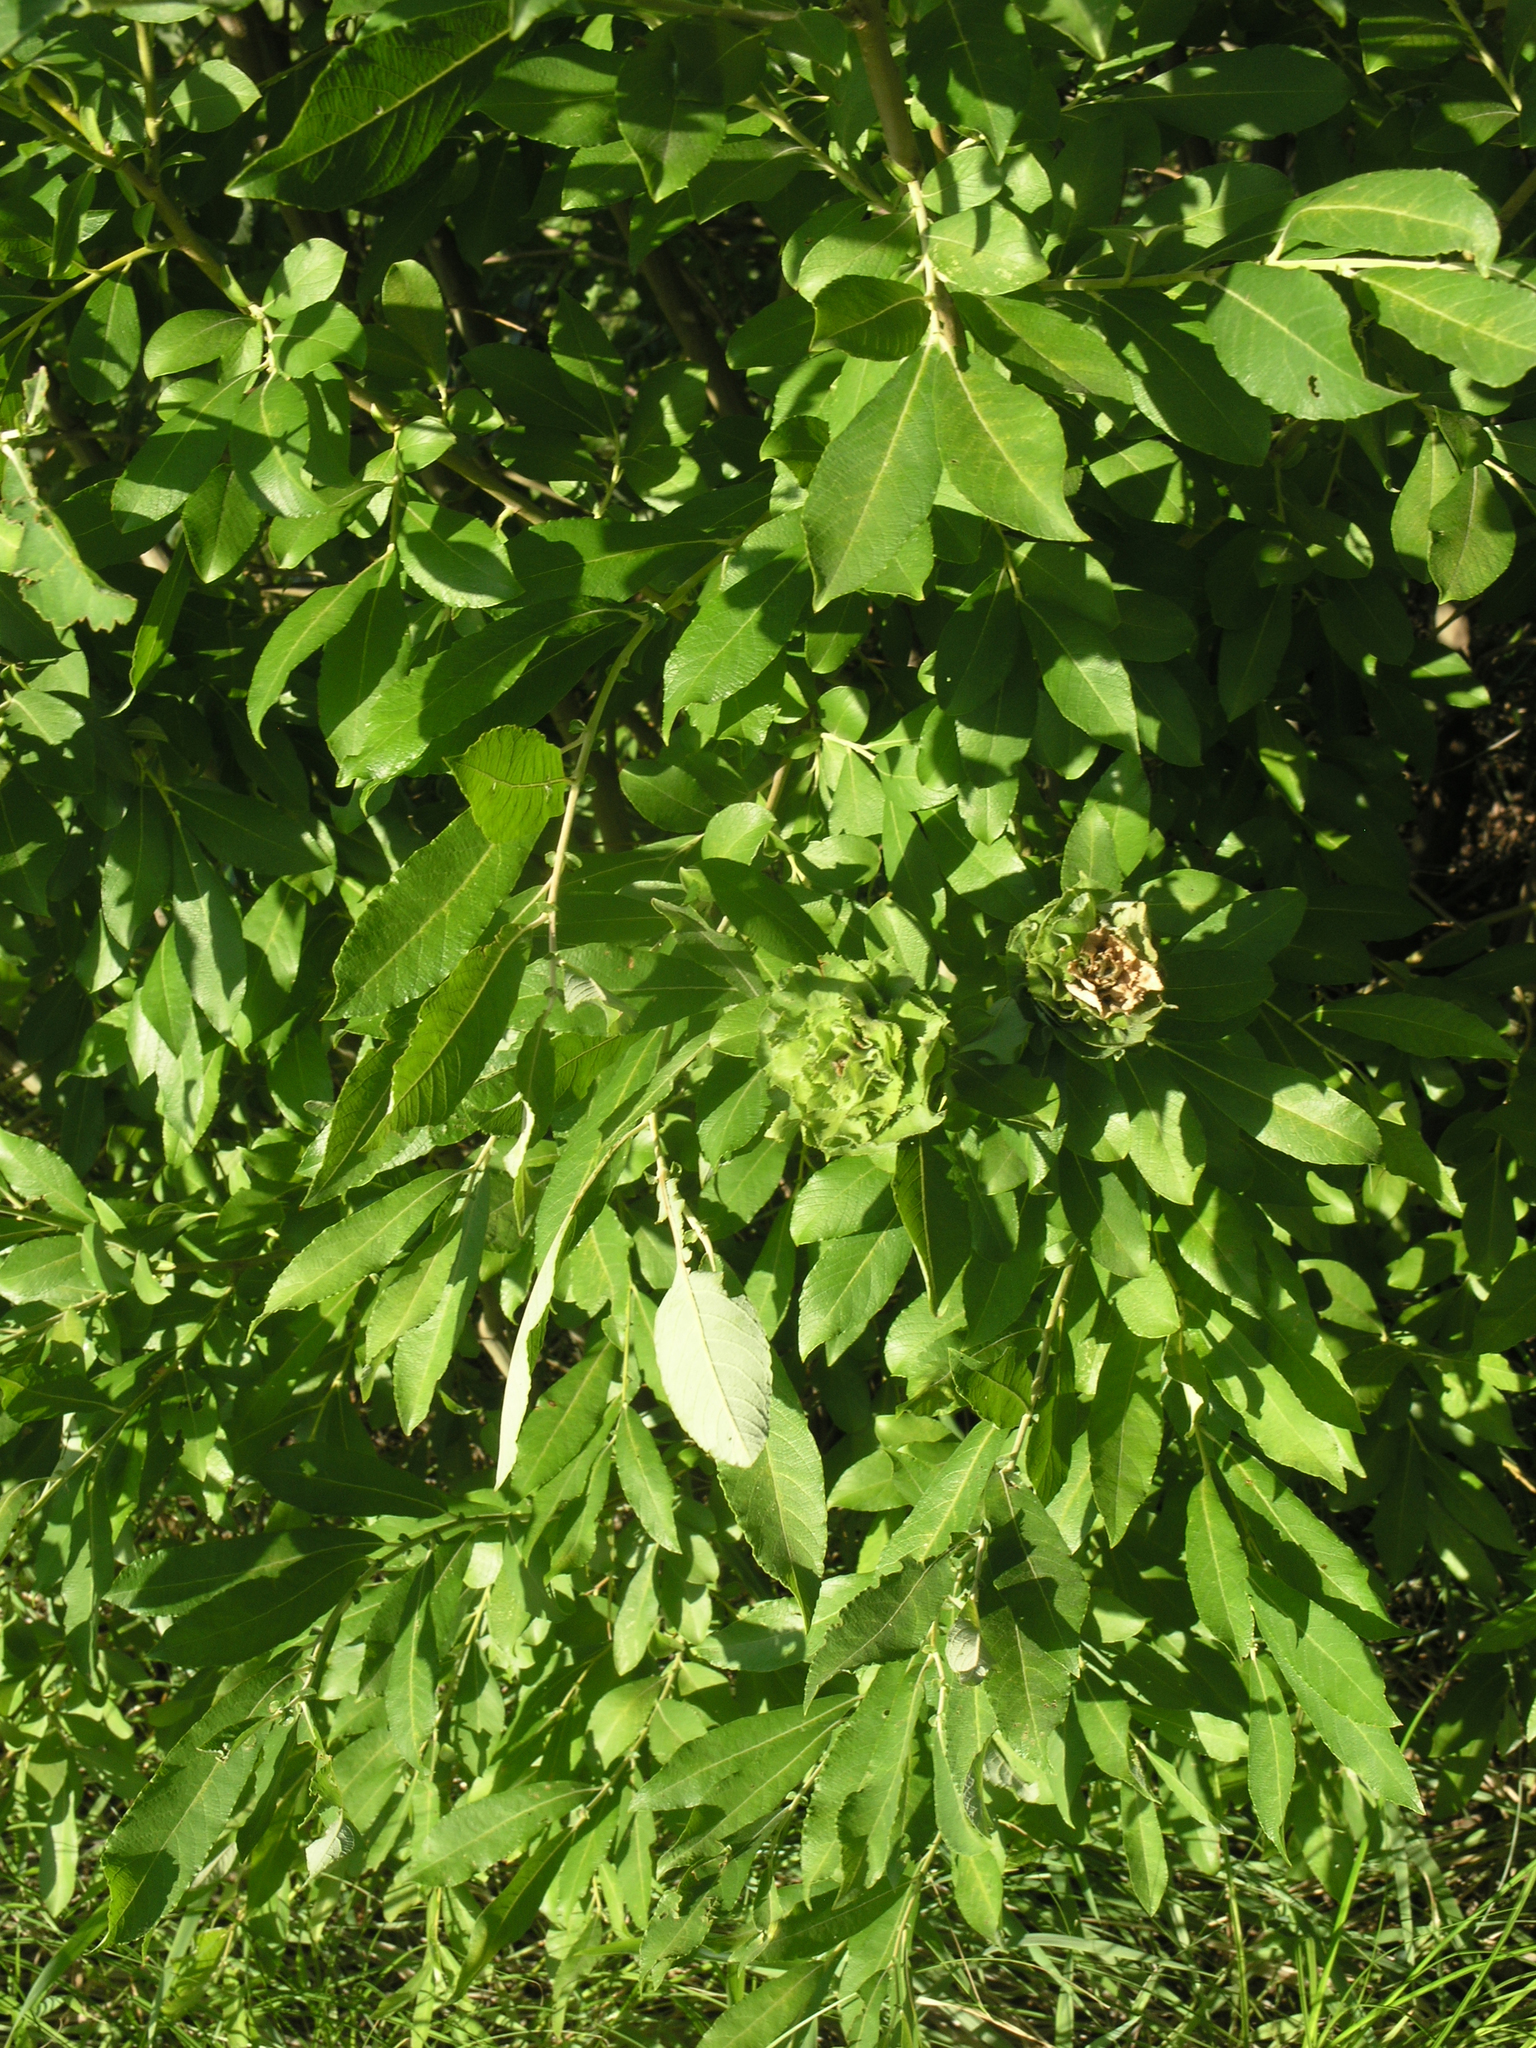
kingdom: Plantae
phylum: Tracheophyta
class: Magnoliopsida
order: Malpighiales
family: Salicaceae
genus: Salix
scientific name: Salix cinerea
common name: Common sallow
